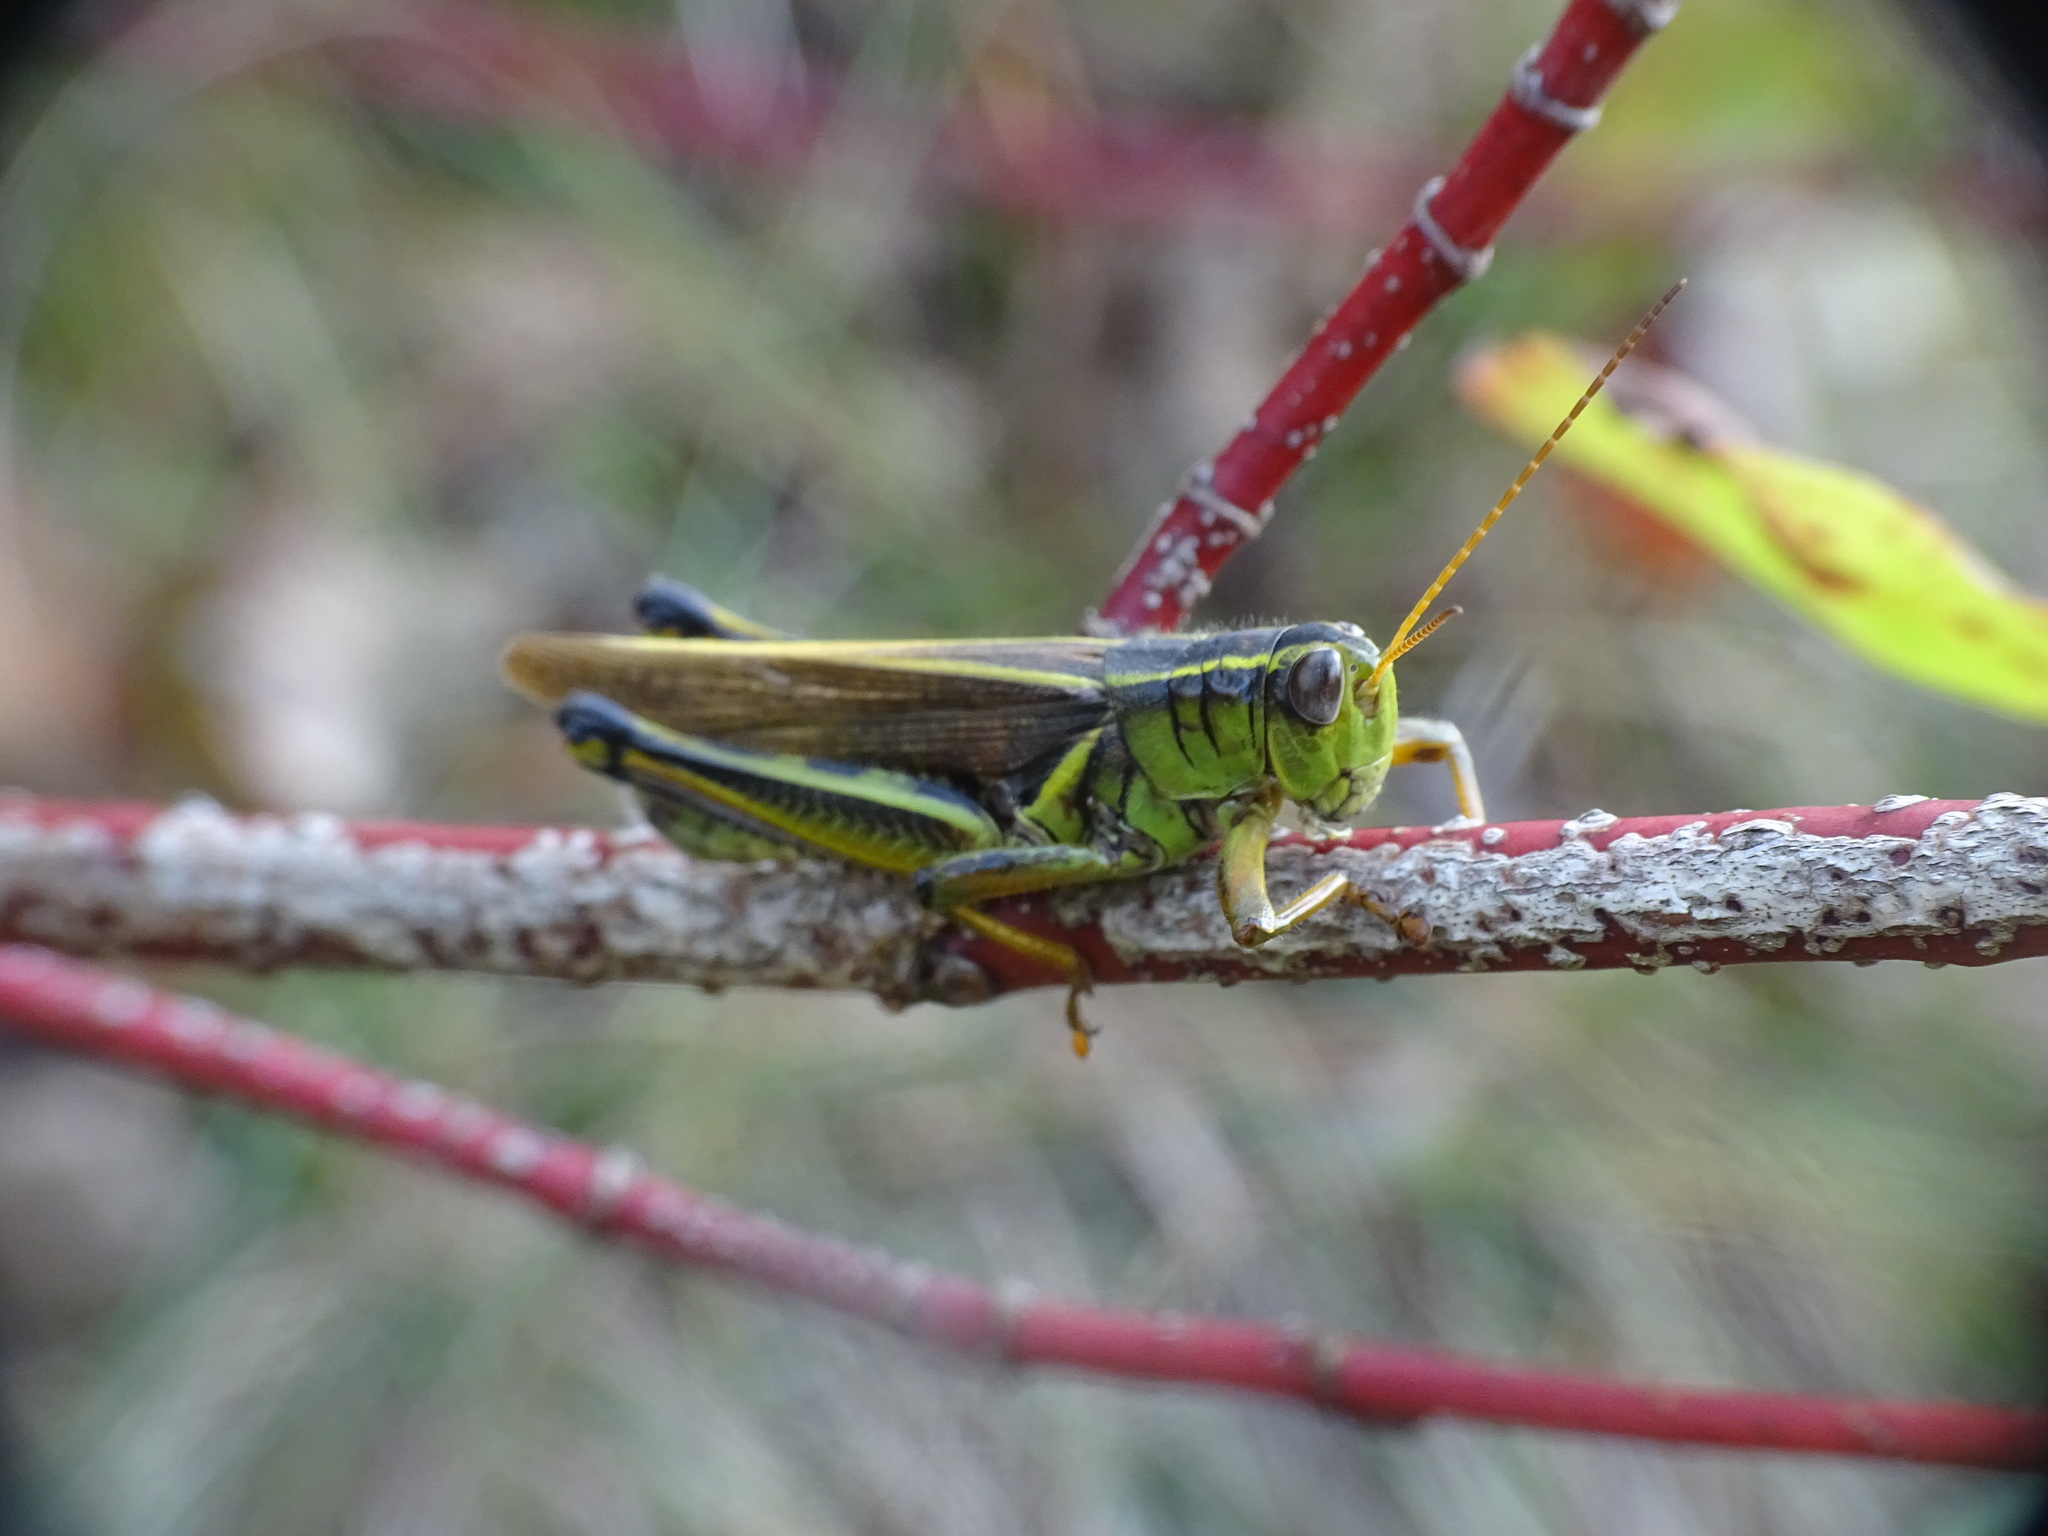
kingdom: Animalia
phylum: Arthropoda
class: Insecta
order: Orthoptera
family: Acrididae
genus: Melanoplus
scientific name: Melanoplus bivittatus
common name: Two-striped grasshopper
